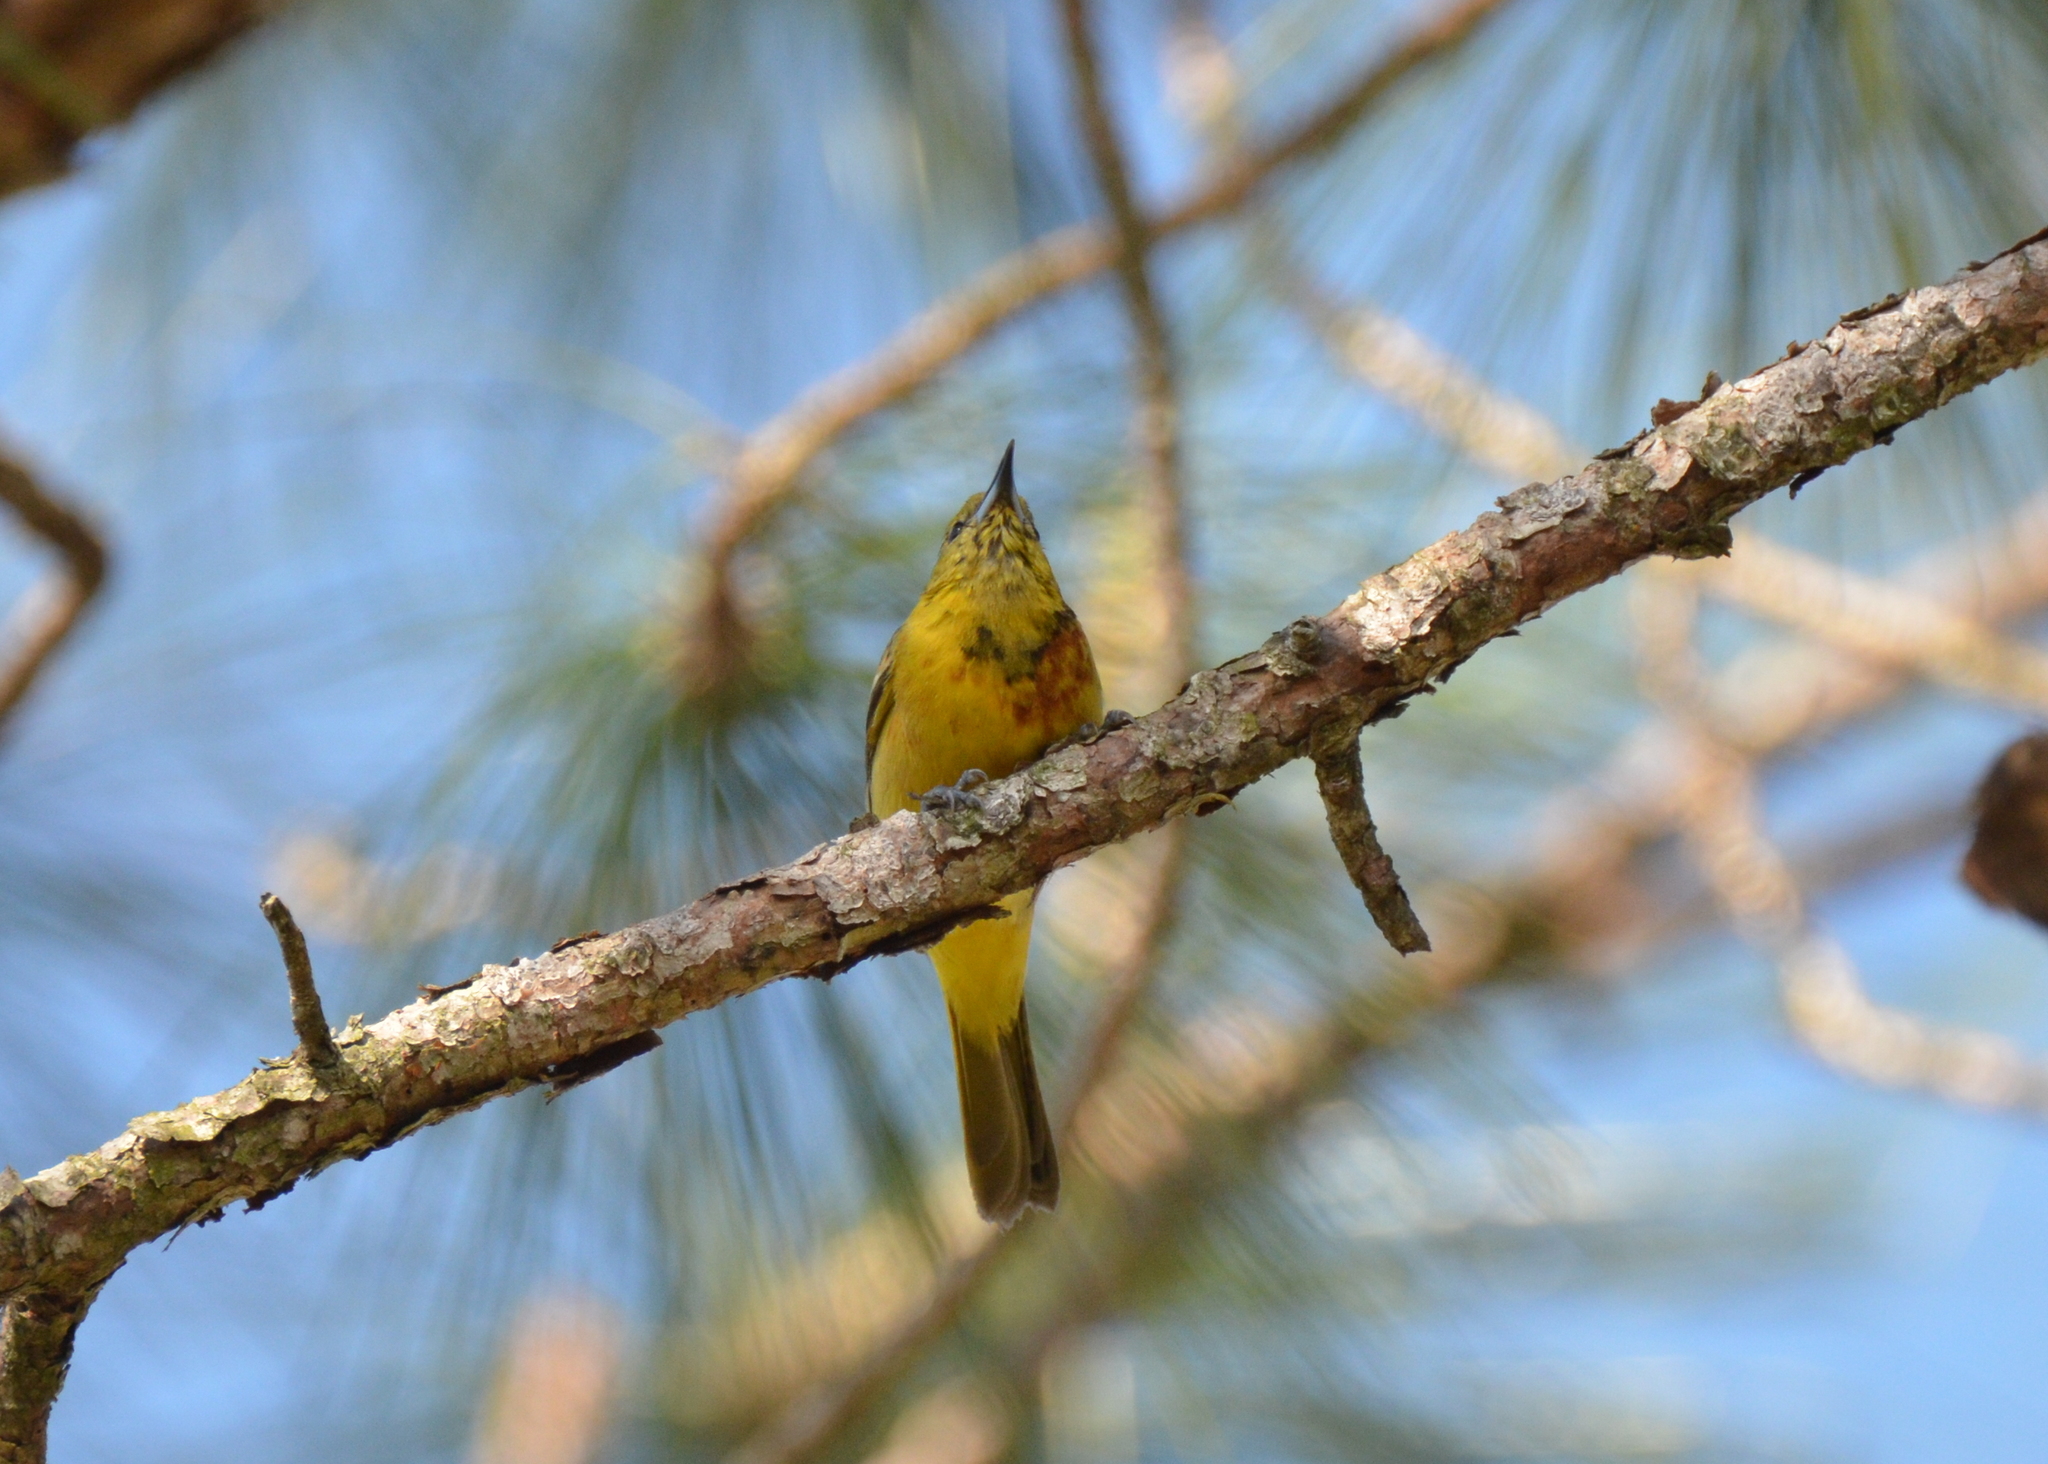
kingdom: Animalia
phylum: Chordata
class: Aves
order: Passeriformes
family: Icteridae
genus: Icterus
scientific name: Icterus spurius
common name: Orchard oriole
